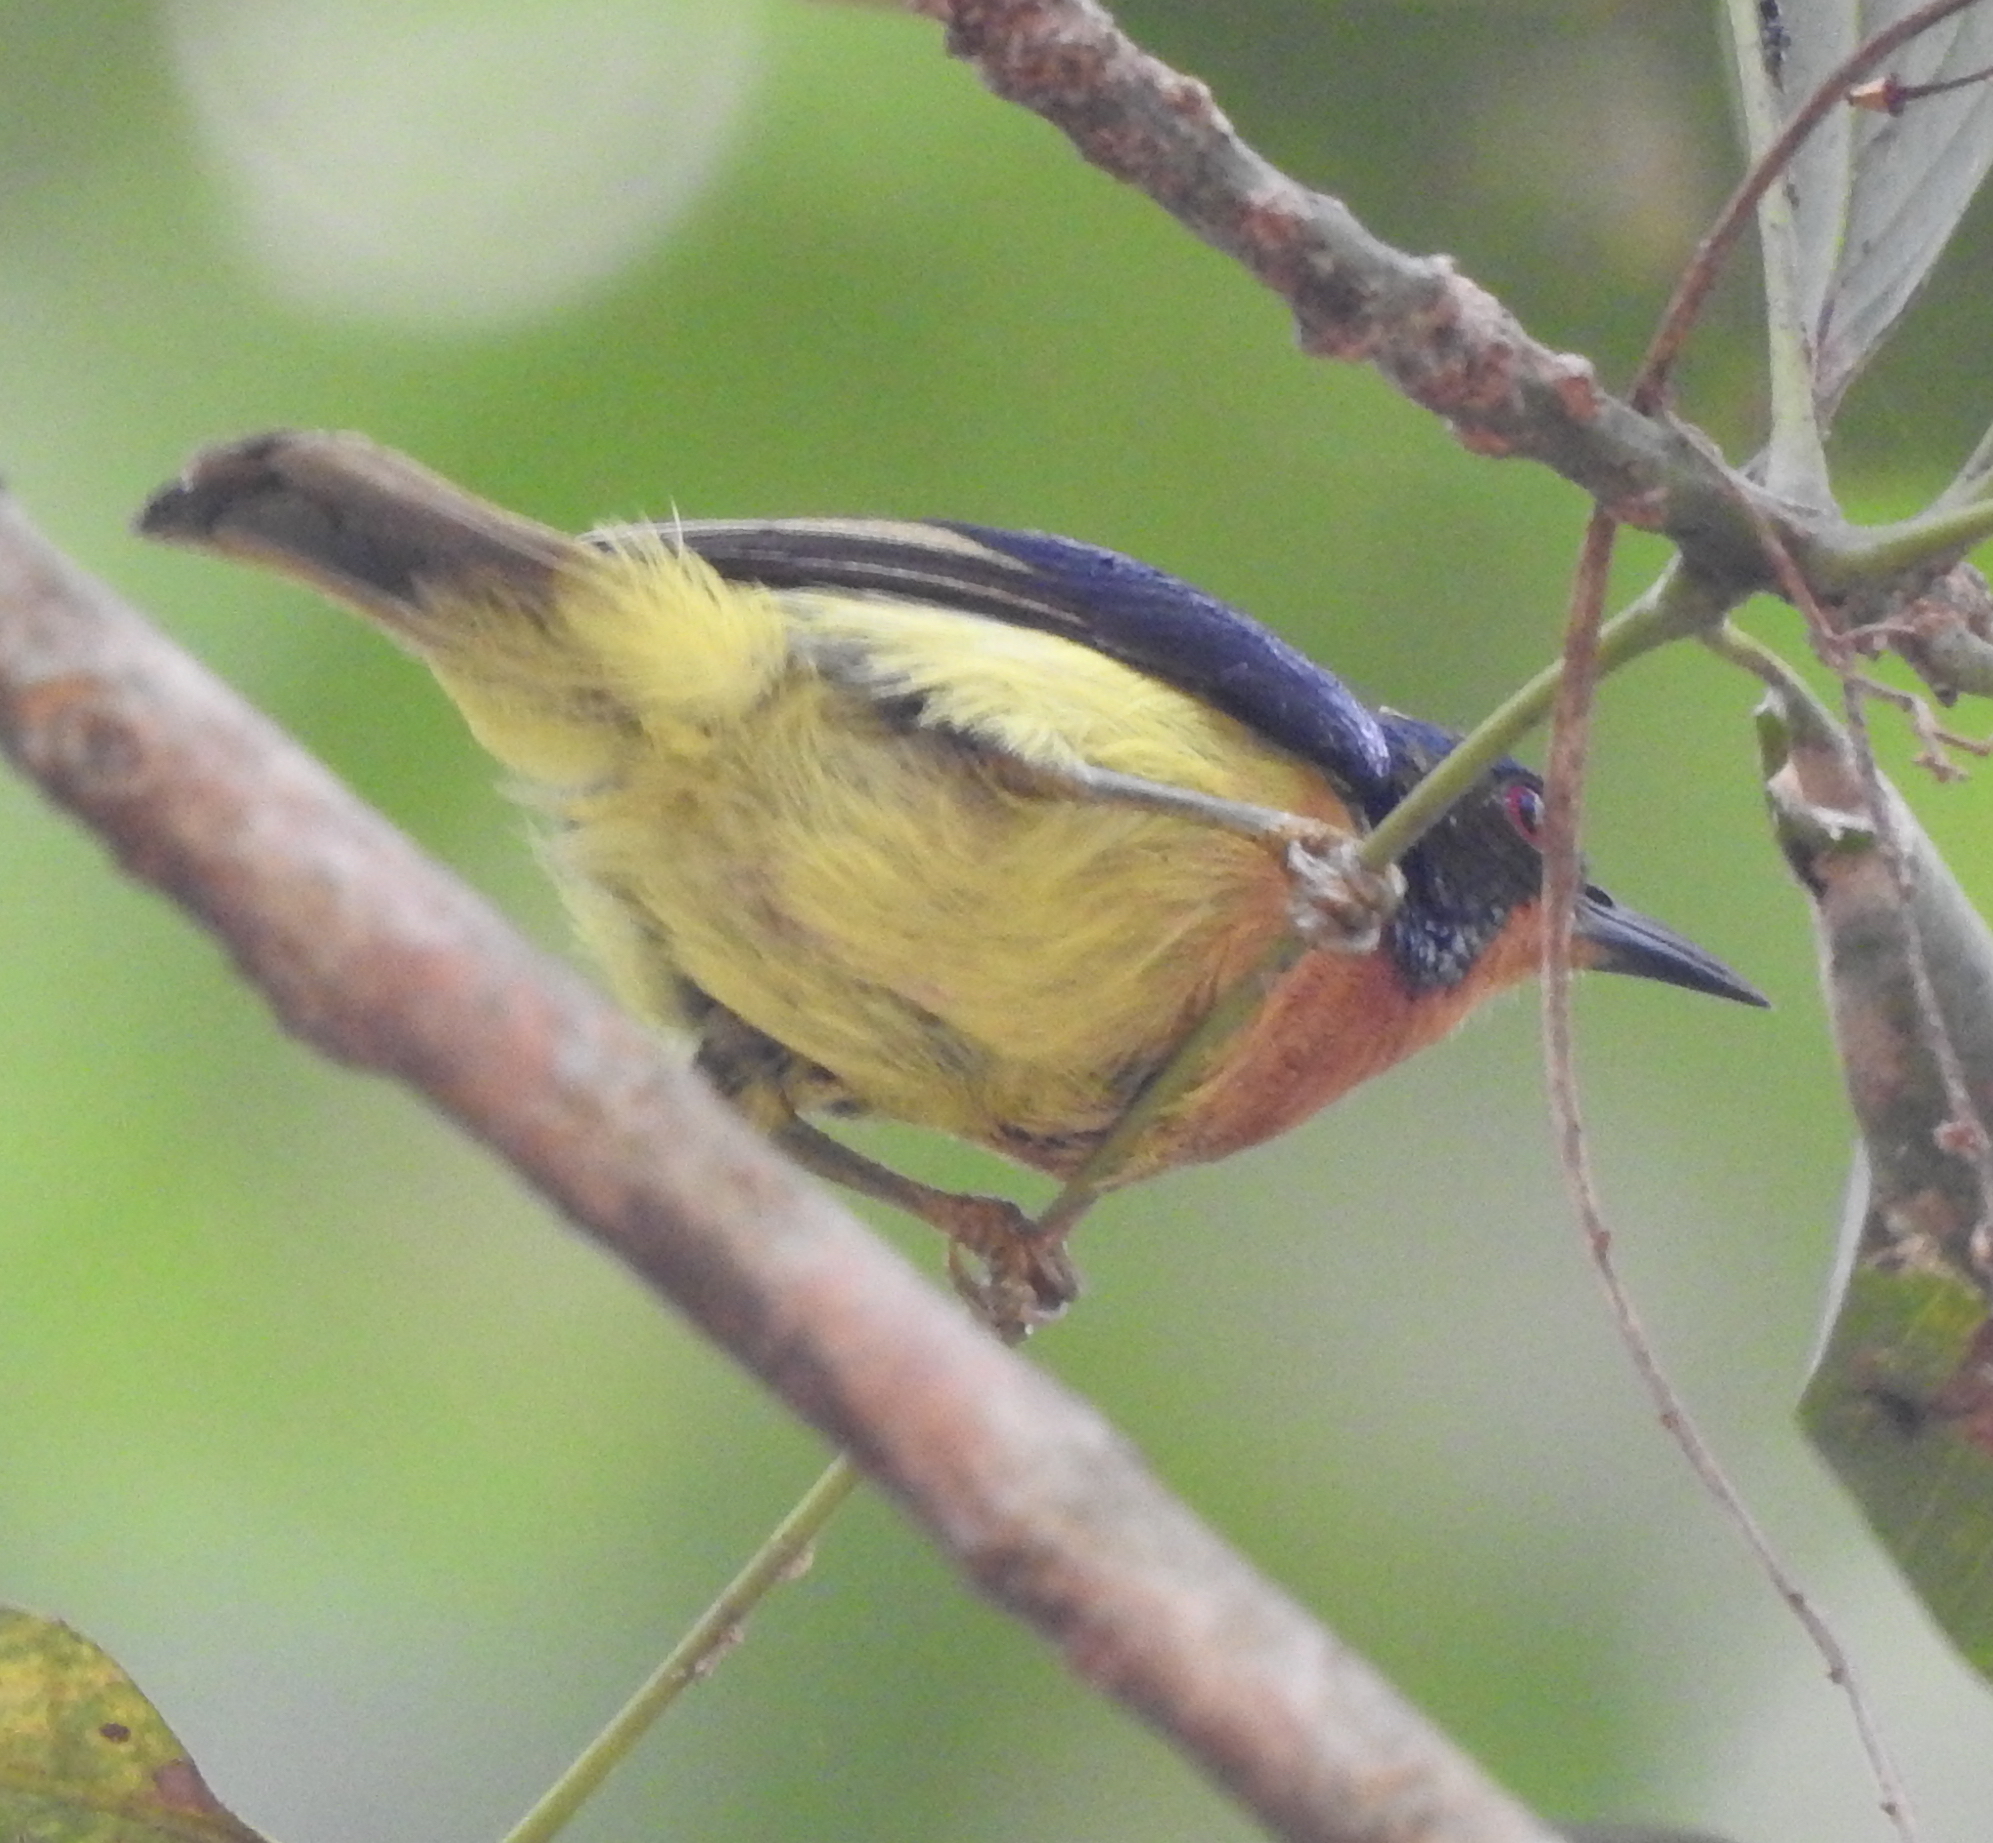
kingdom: Animalia
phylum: Chordata
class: Aves
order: Passeriformes
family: Nectariniidae
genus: Chalcoparia
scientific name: Chalcoparia singalensis
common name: Ruby-cheeked sunbird
